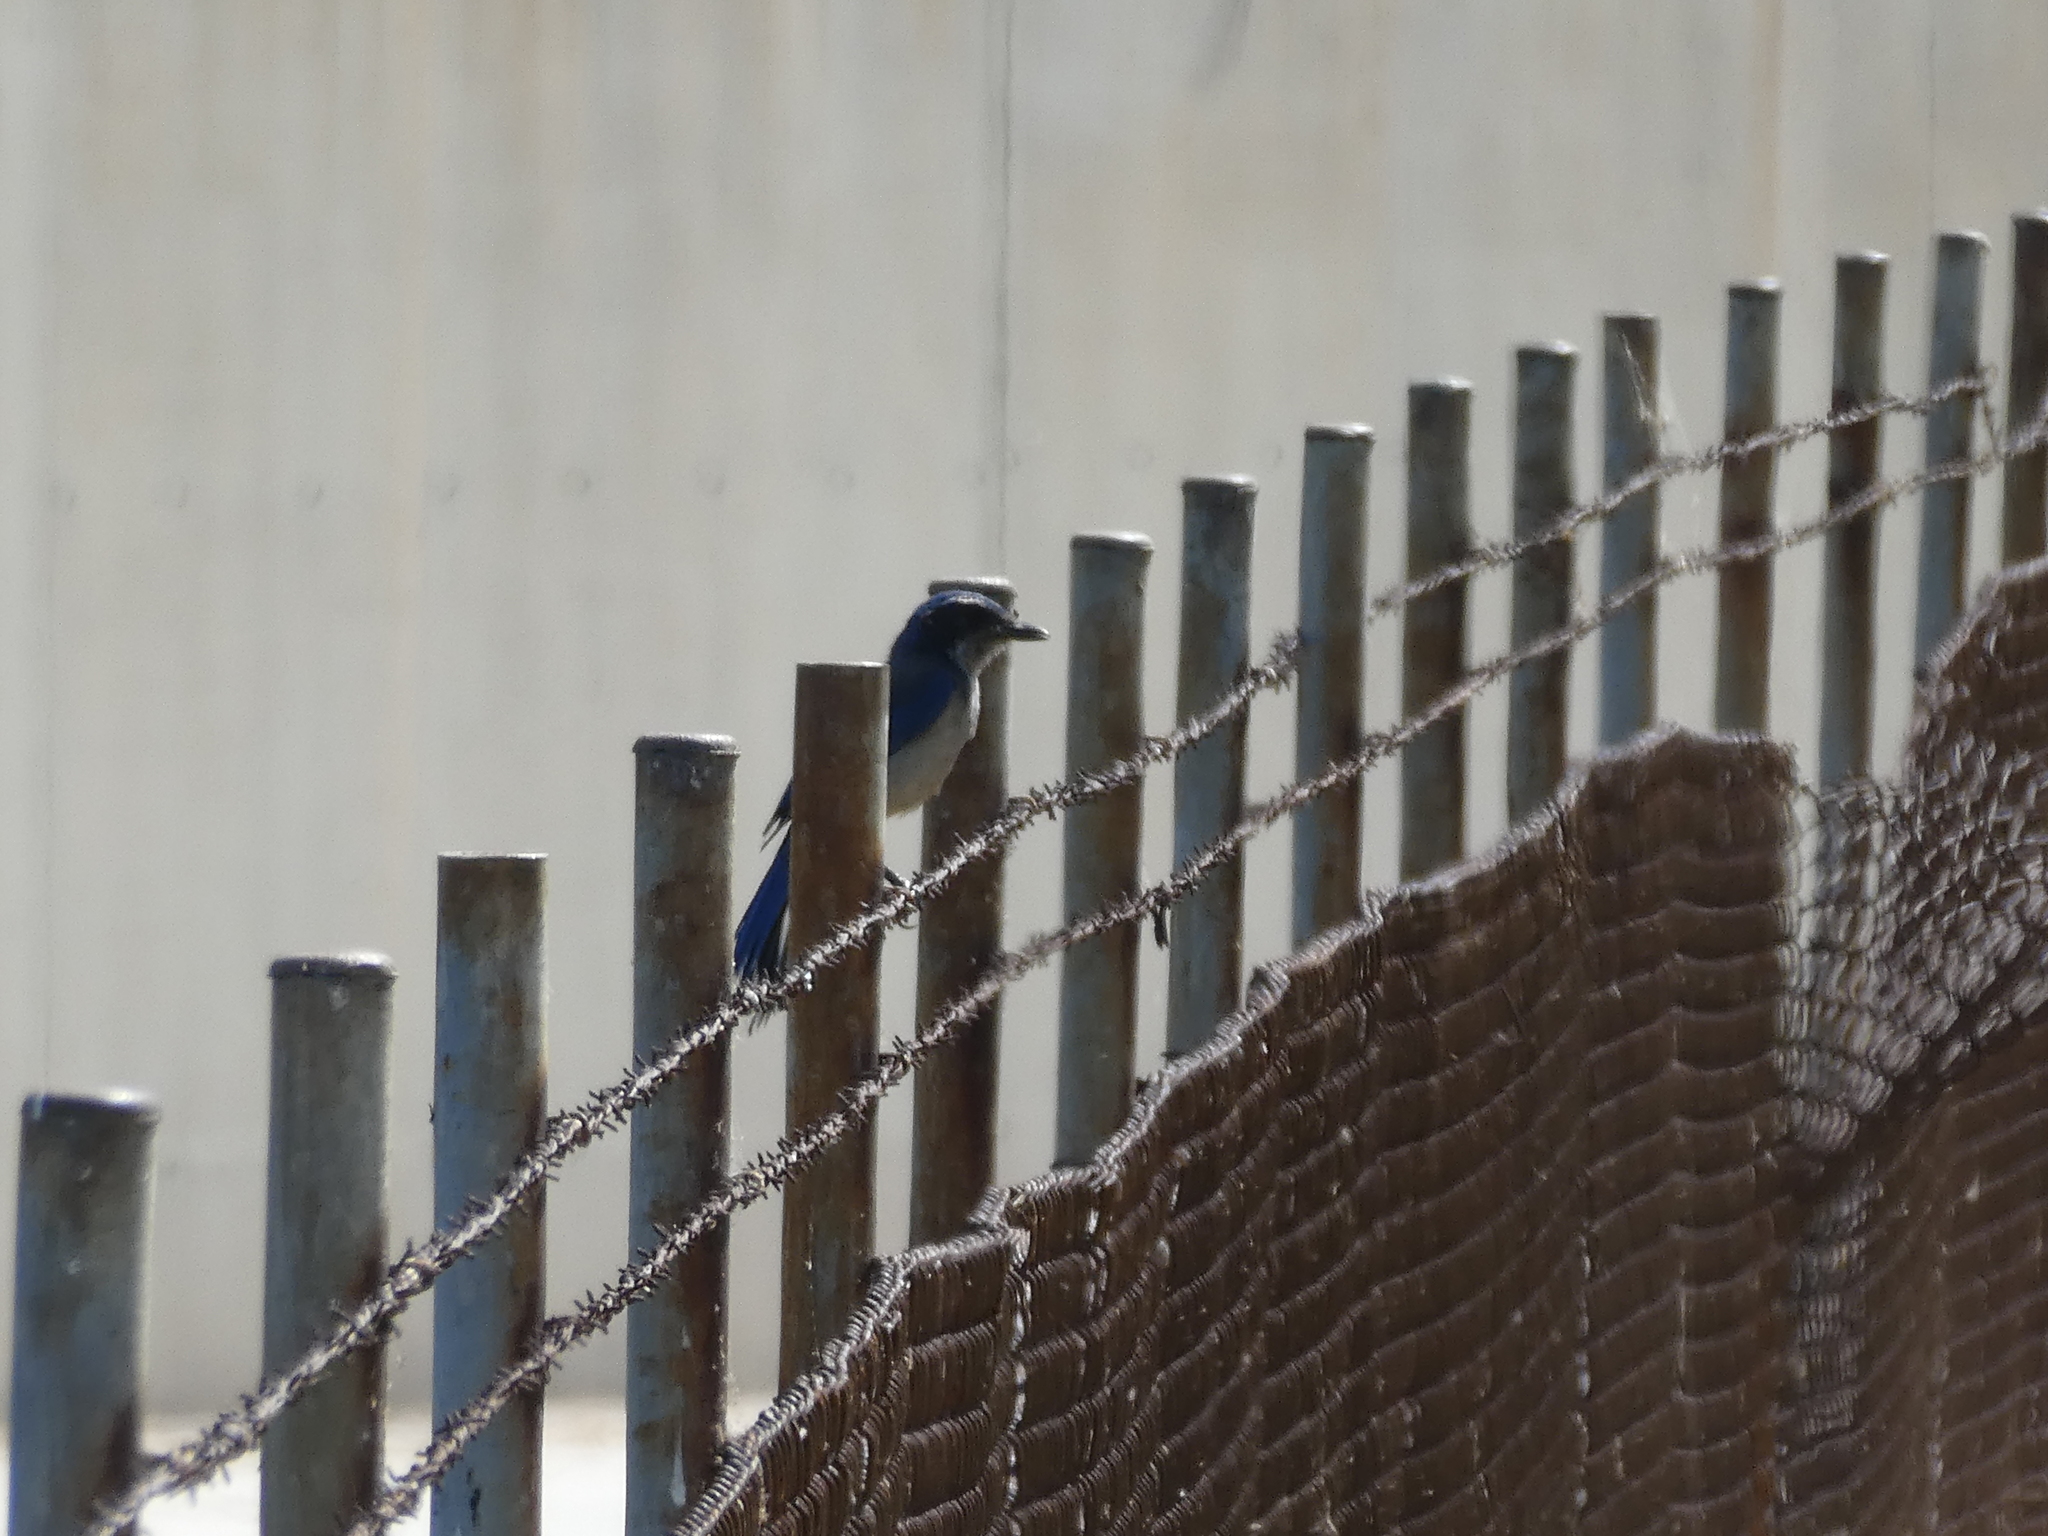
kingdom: Animalia
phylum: Chordata
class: Aves
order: Passeriformes
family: Corvidae
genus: Aphelocoma
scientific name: Aphelocoma californica
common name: California scrub-jay
